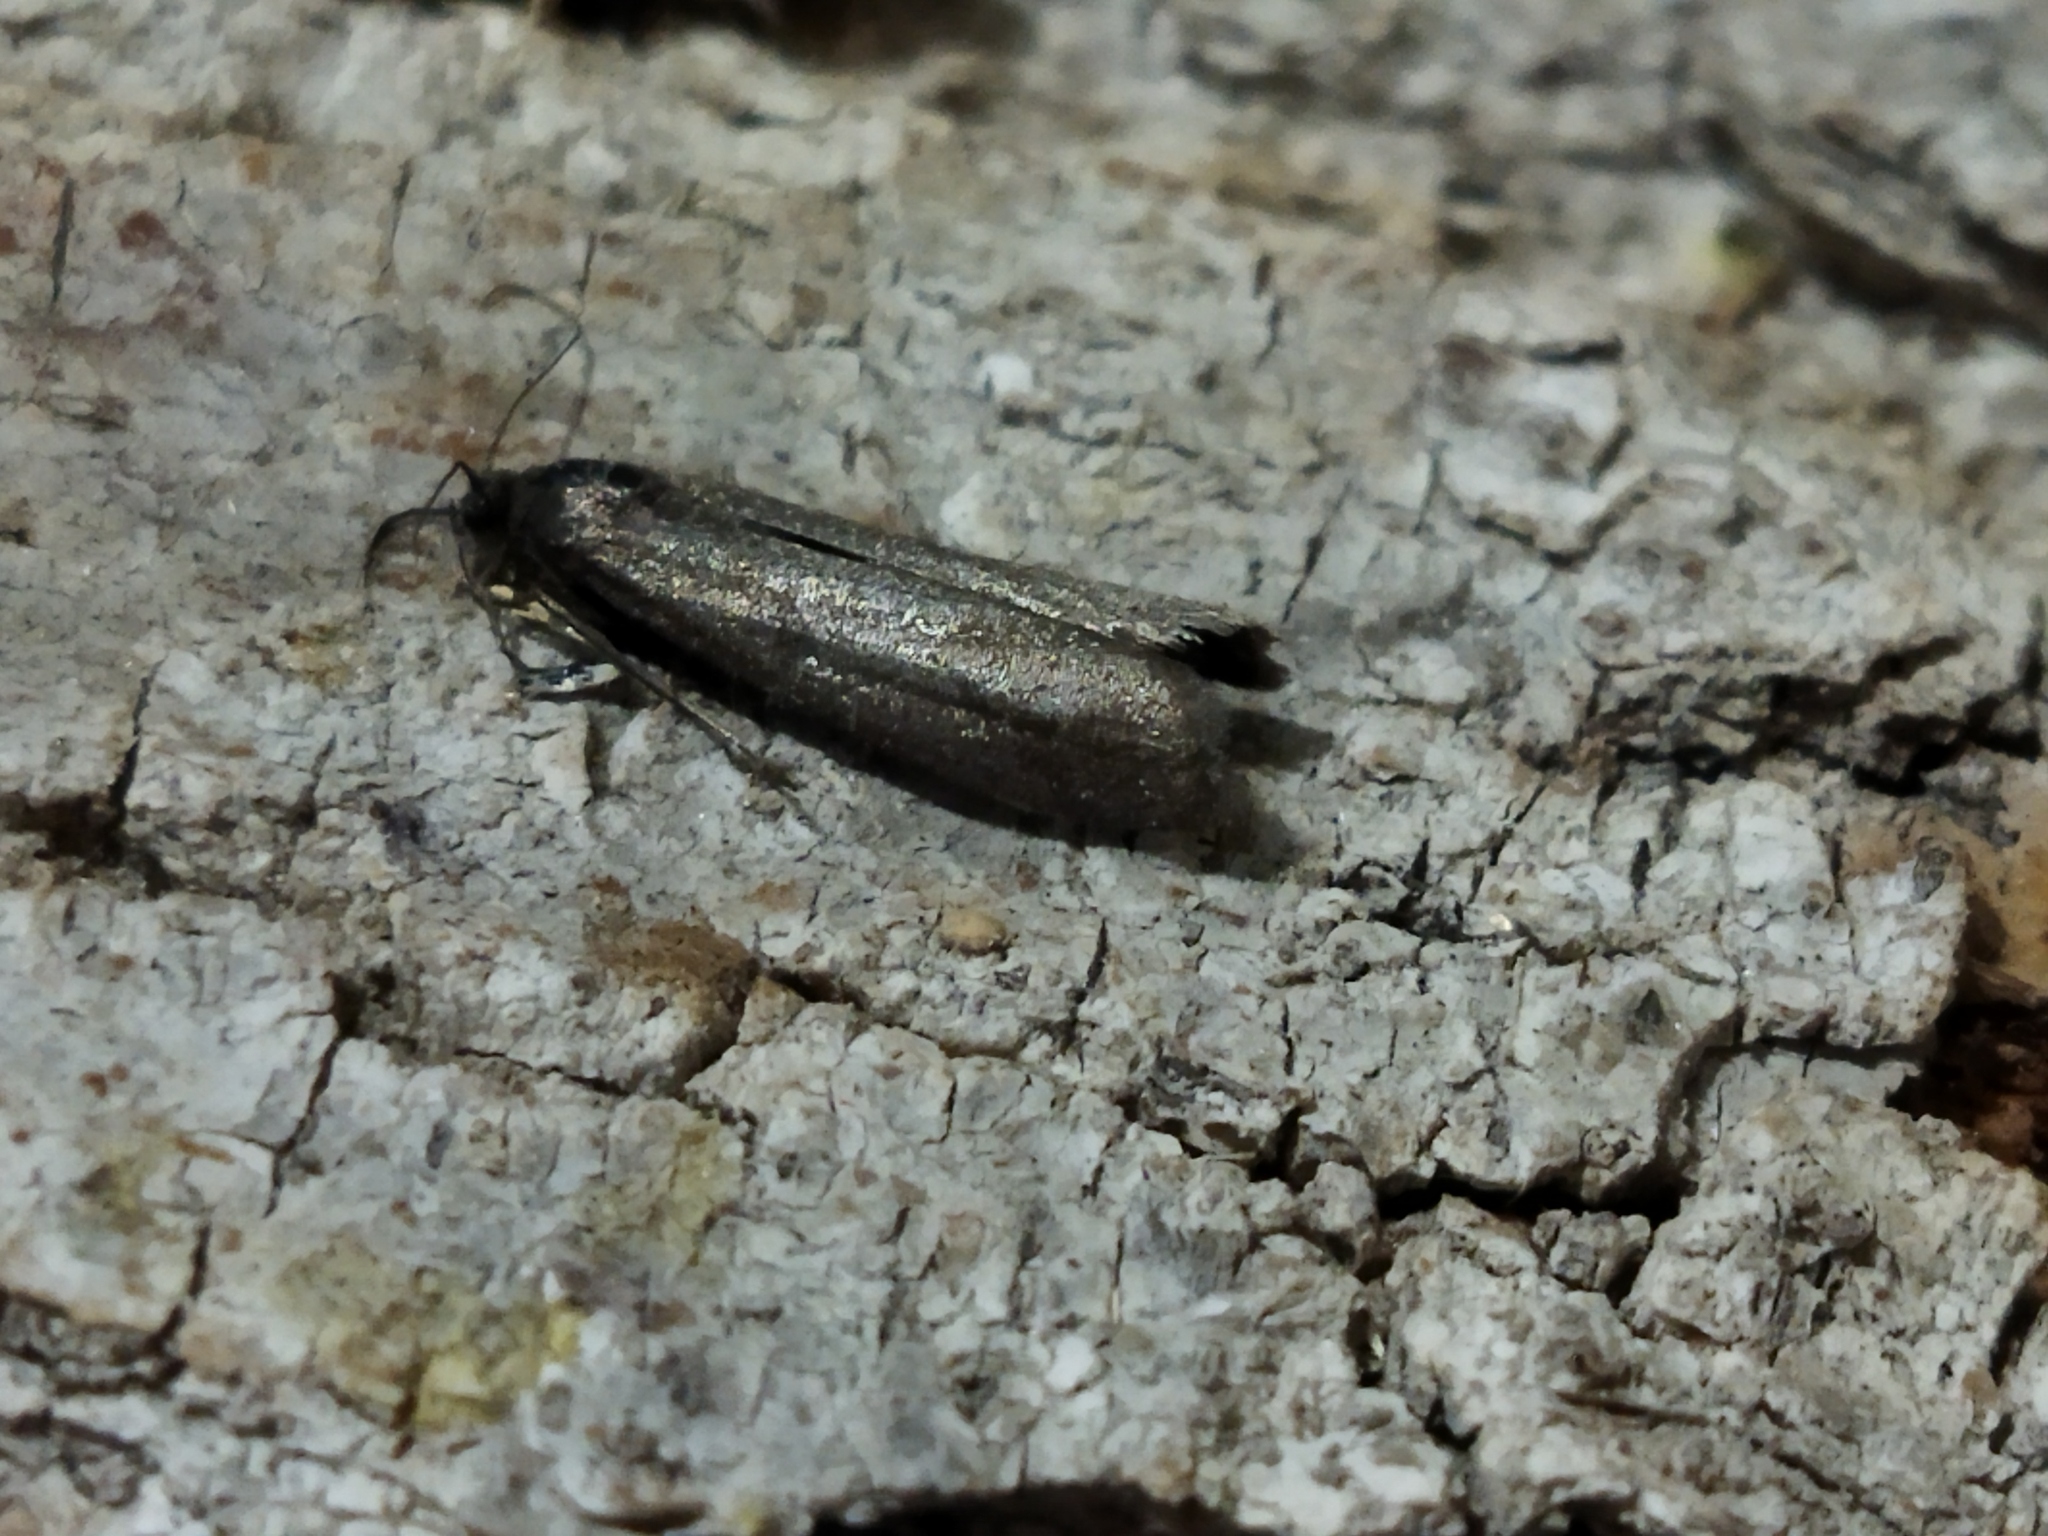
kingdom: Animalia
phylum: Arthropoda
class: Insecta
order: Lepidoptera
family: Pyralidae
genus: Myelois
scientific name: Myelois tetricella
